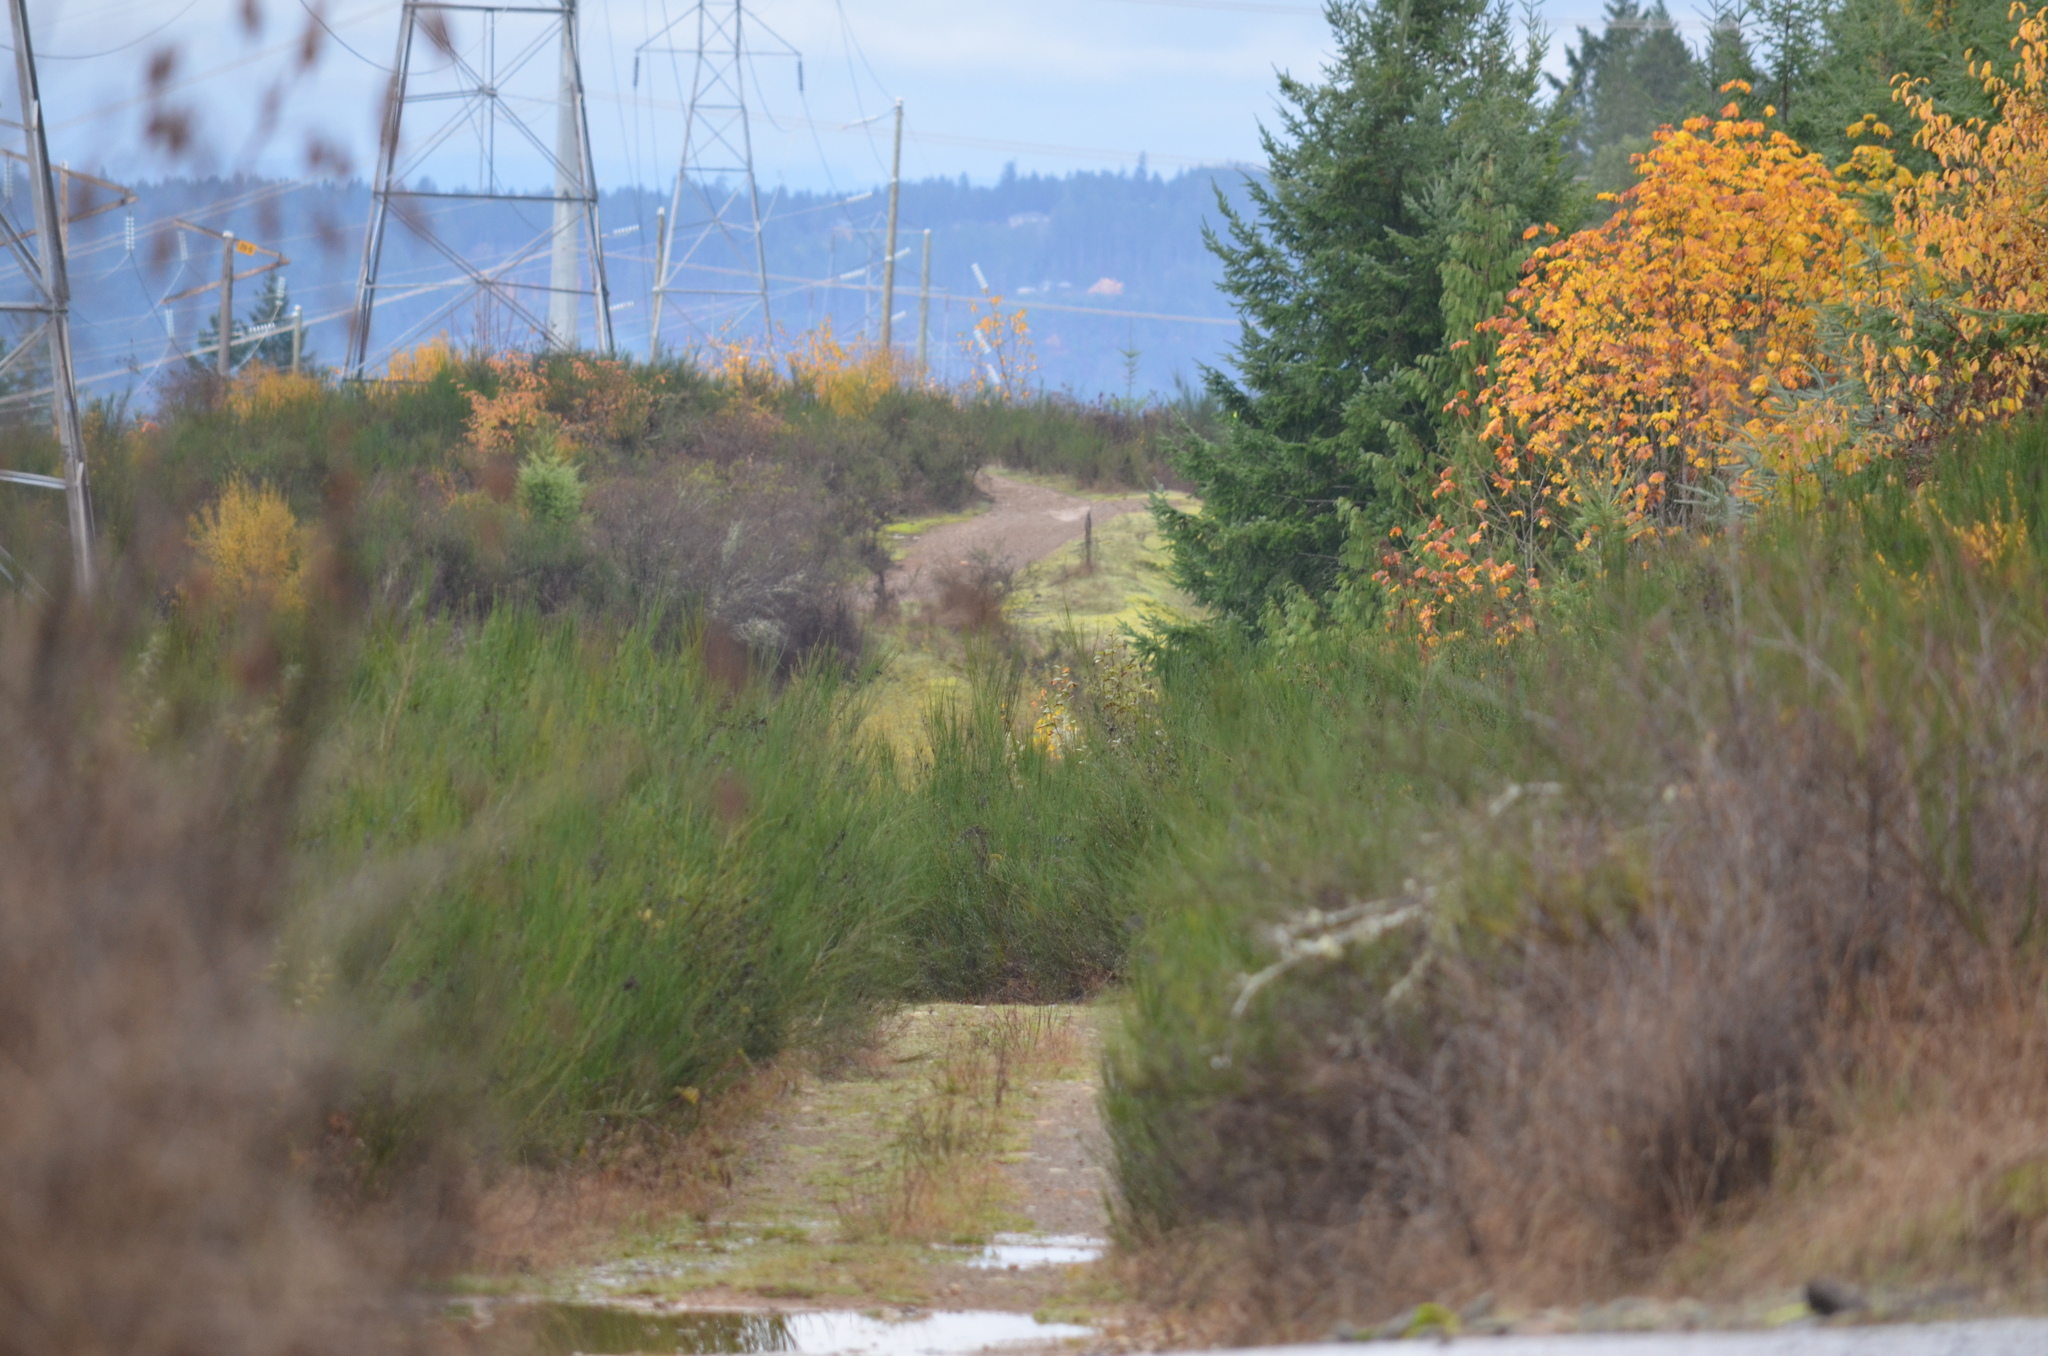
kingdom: Plantae
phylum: Tracheophyta
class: Magnoliopsida
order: Fabales
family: Fabaceae
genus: Cytisus
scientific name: Cytisus scoparius
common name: Scotch broom
